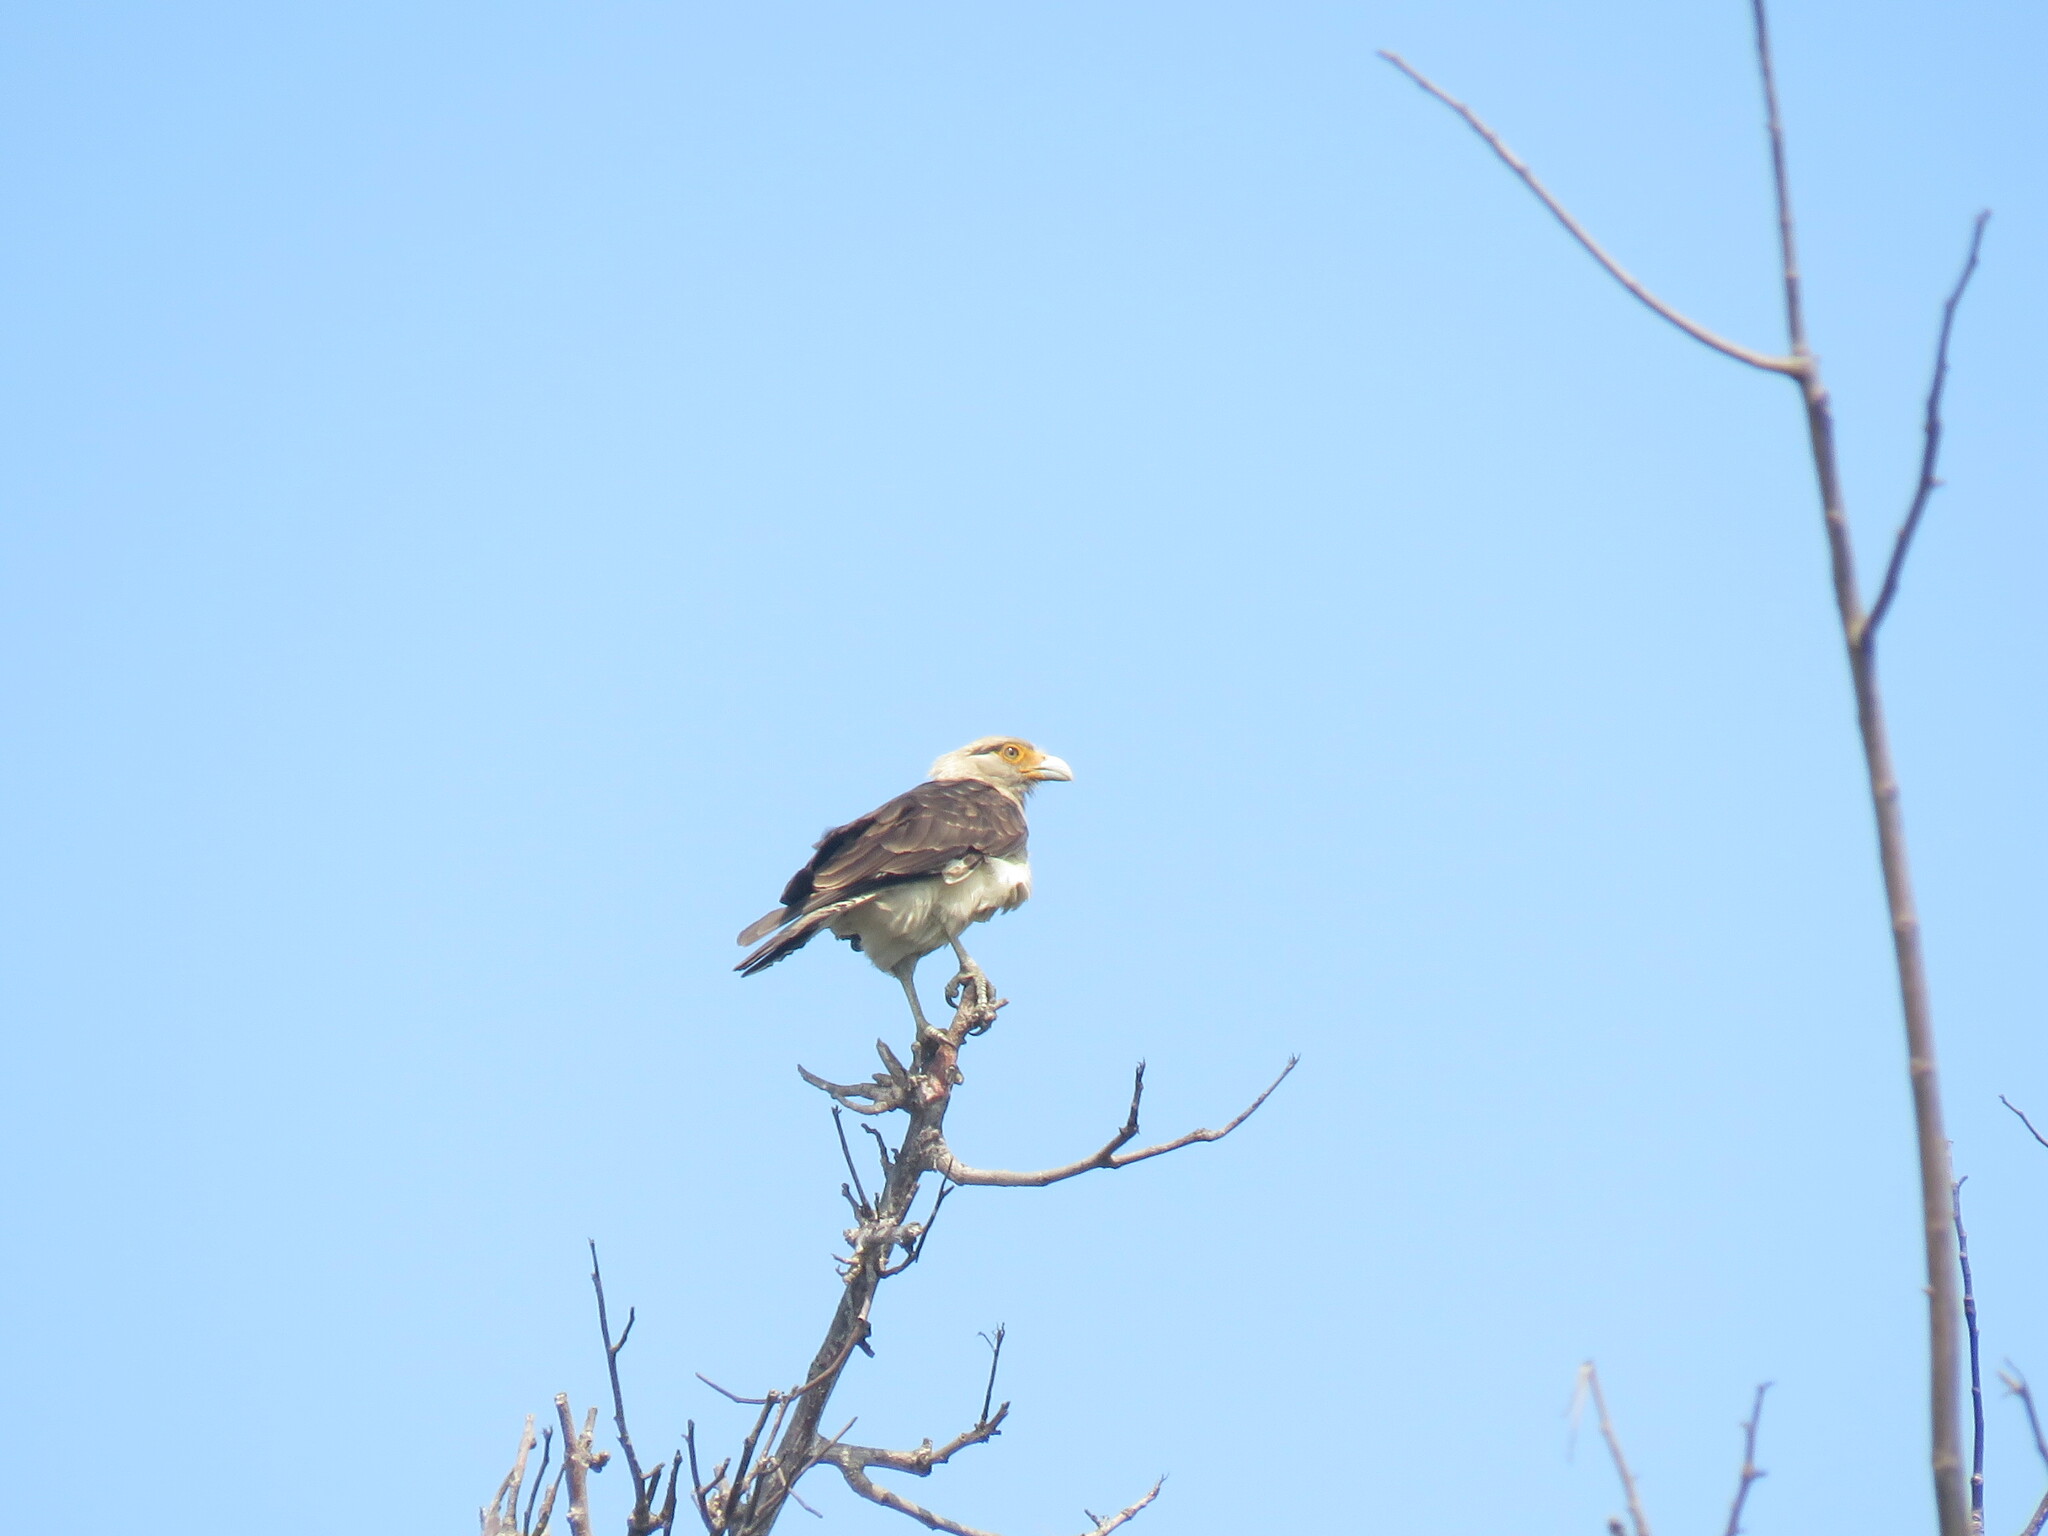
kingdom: Animalia
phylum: Chordata
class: Aves
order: Falconiformes
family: Falconidae
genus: Daptrius
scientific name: Daptrius
